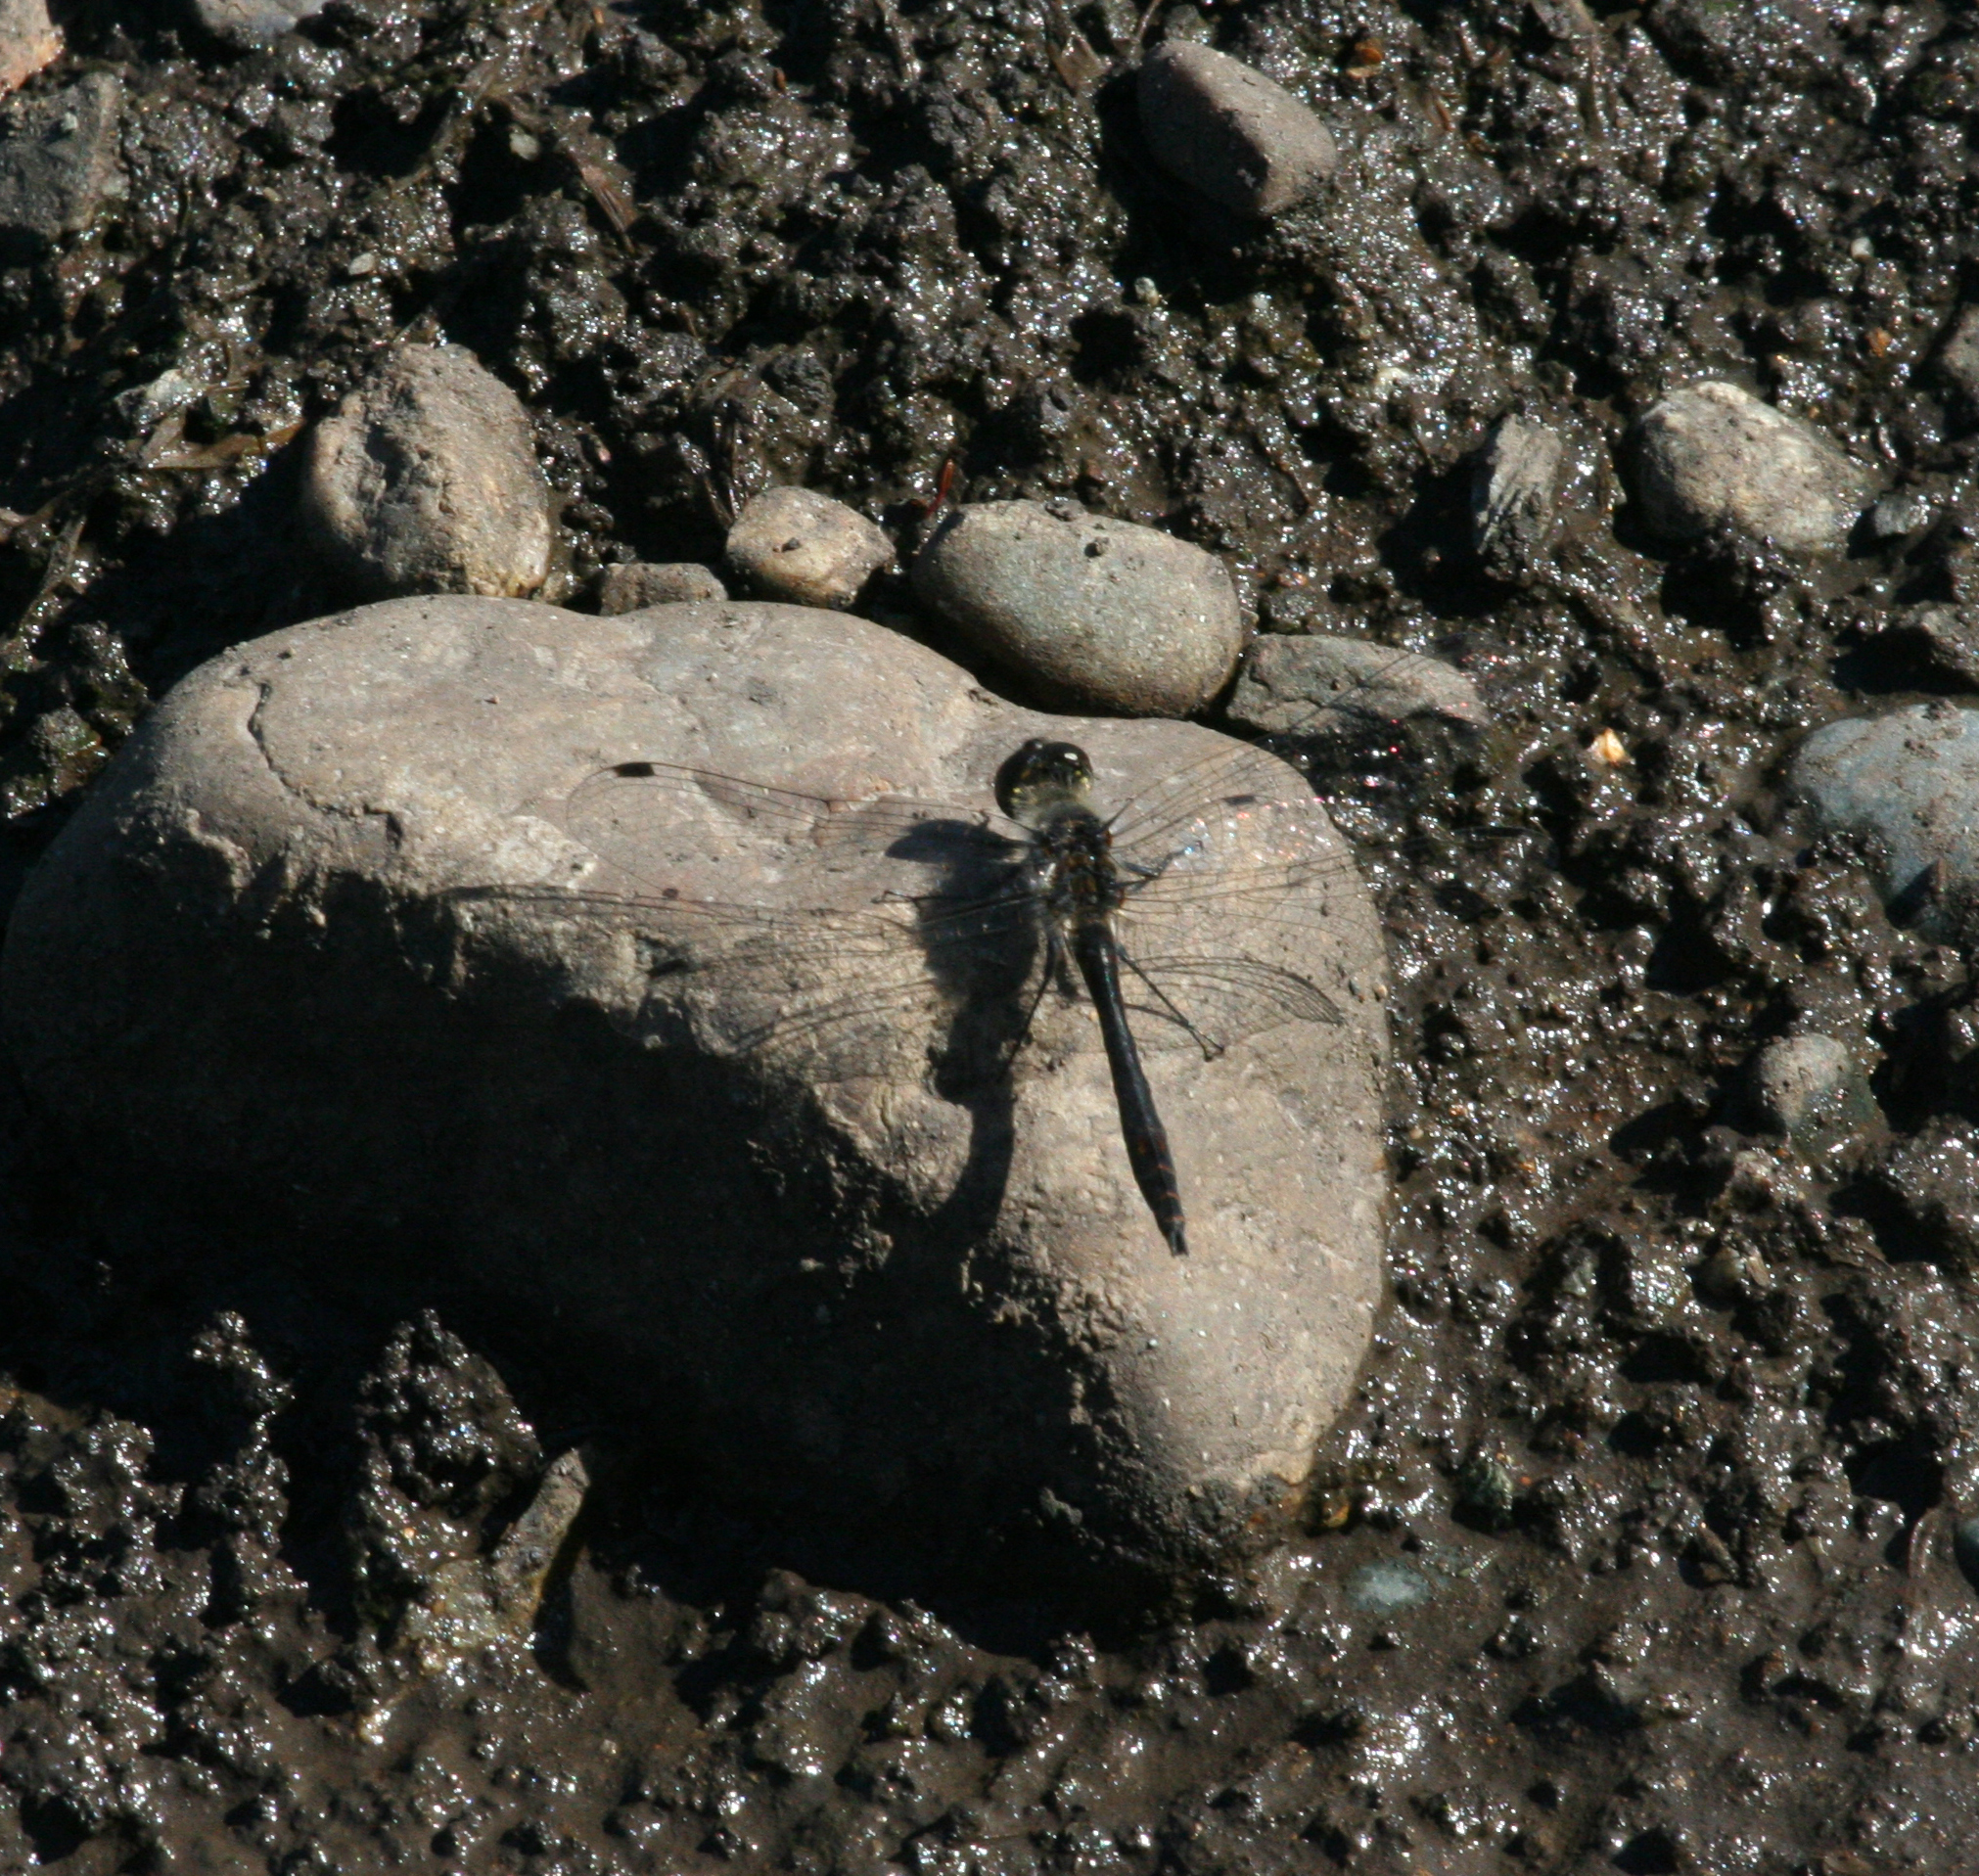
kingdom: Animalia
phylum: Arthropoda
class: Insecta
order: Odonata
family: Libellulidae
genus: Sympetrum
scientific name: Sympetrum danae
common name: Black darter
